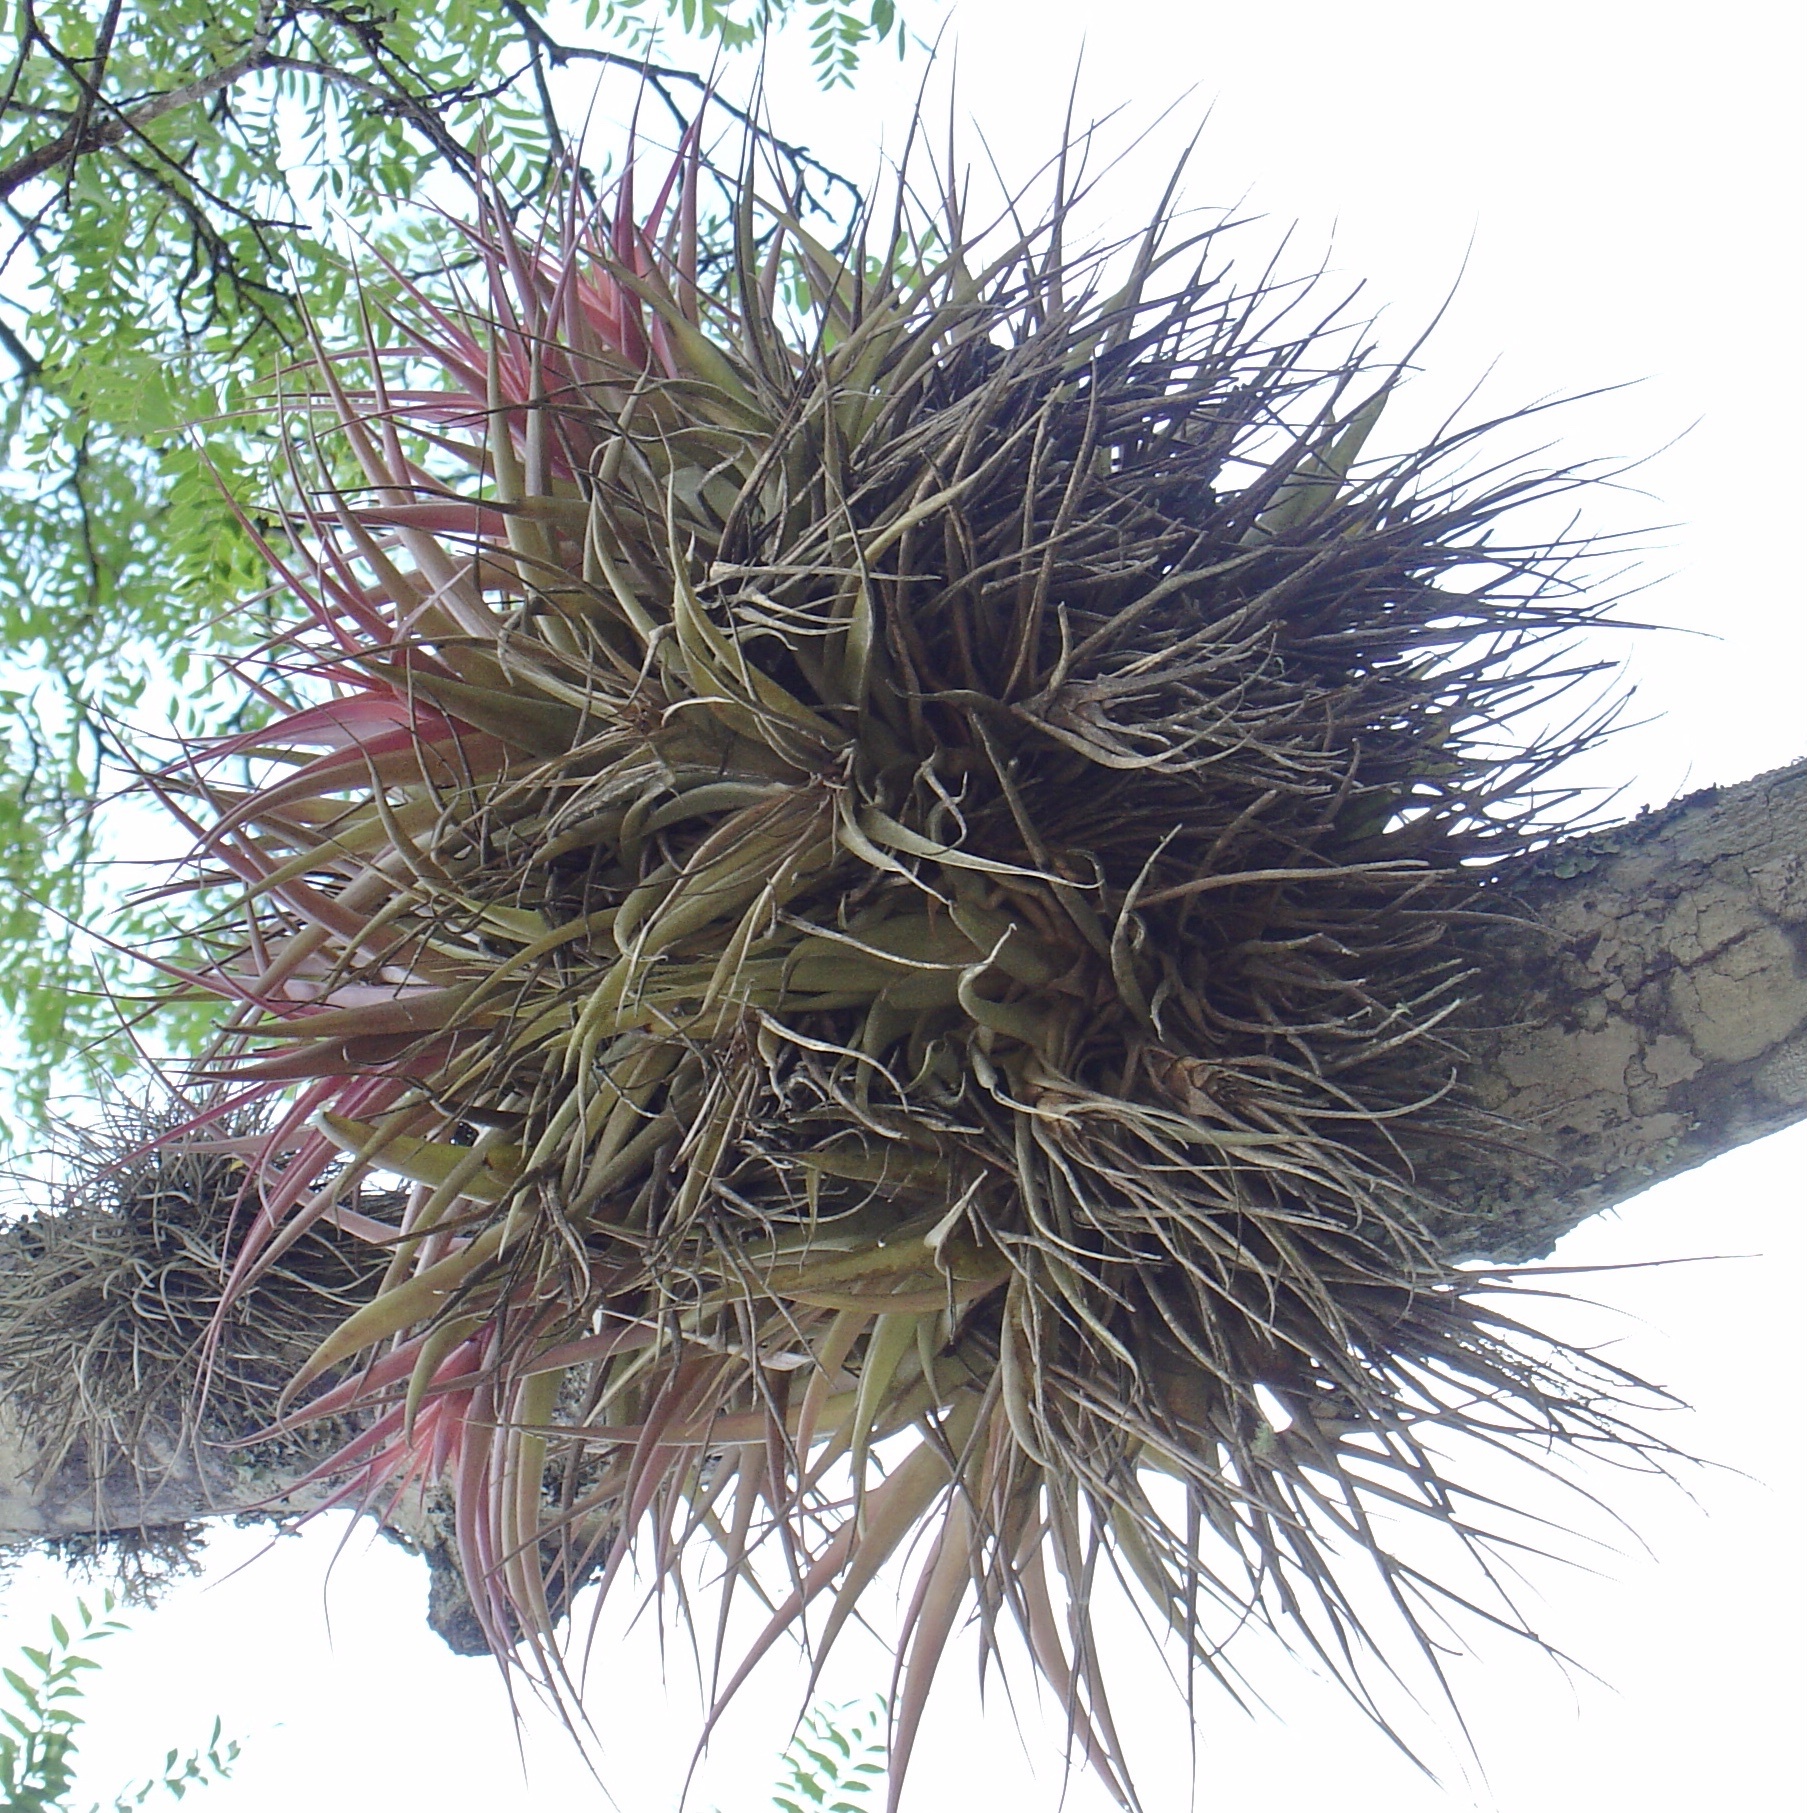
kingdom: Plantae
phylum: Tracheophyta
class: Liliopsida
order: Poales
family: Bromeliaceae
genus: Tillandsia
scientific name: Tillandsia sphaerocephala
